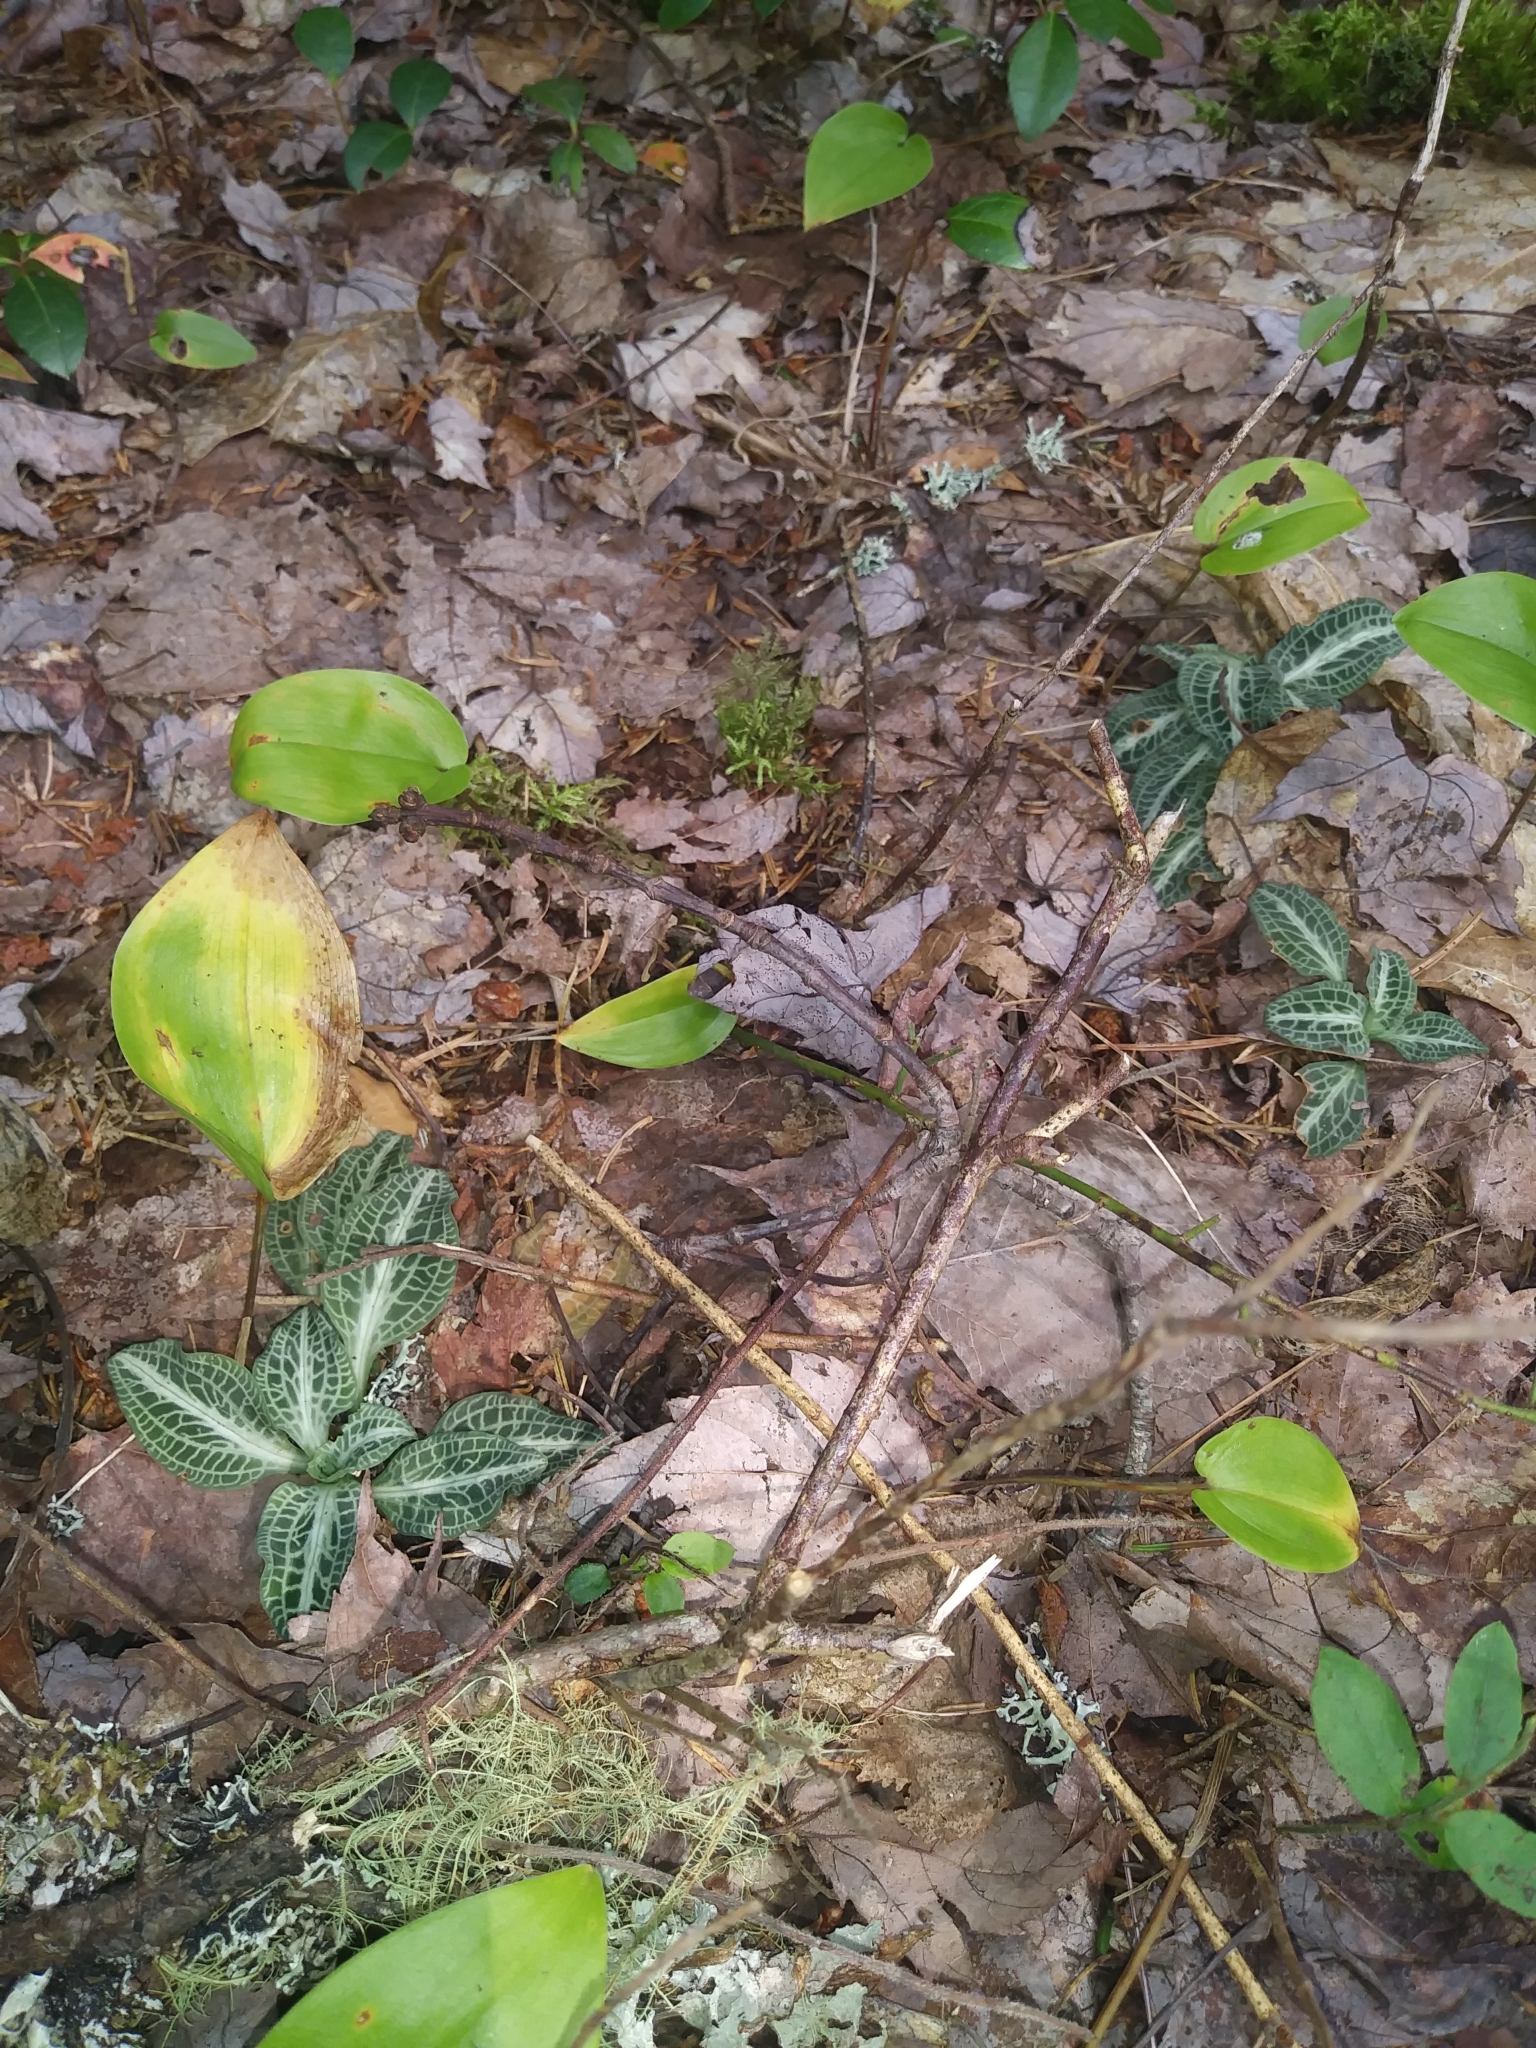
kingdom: Plantae
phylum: Tracheophyta
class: Liliopsida
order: Asparagales
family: Orchidaceae
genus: Goodyera
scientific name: Goodyera pubescens
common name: Downy rattlesnake-plantain
